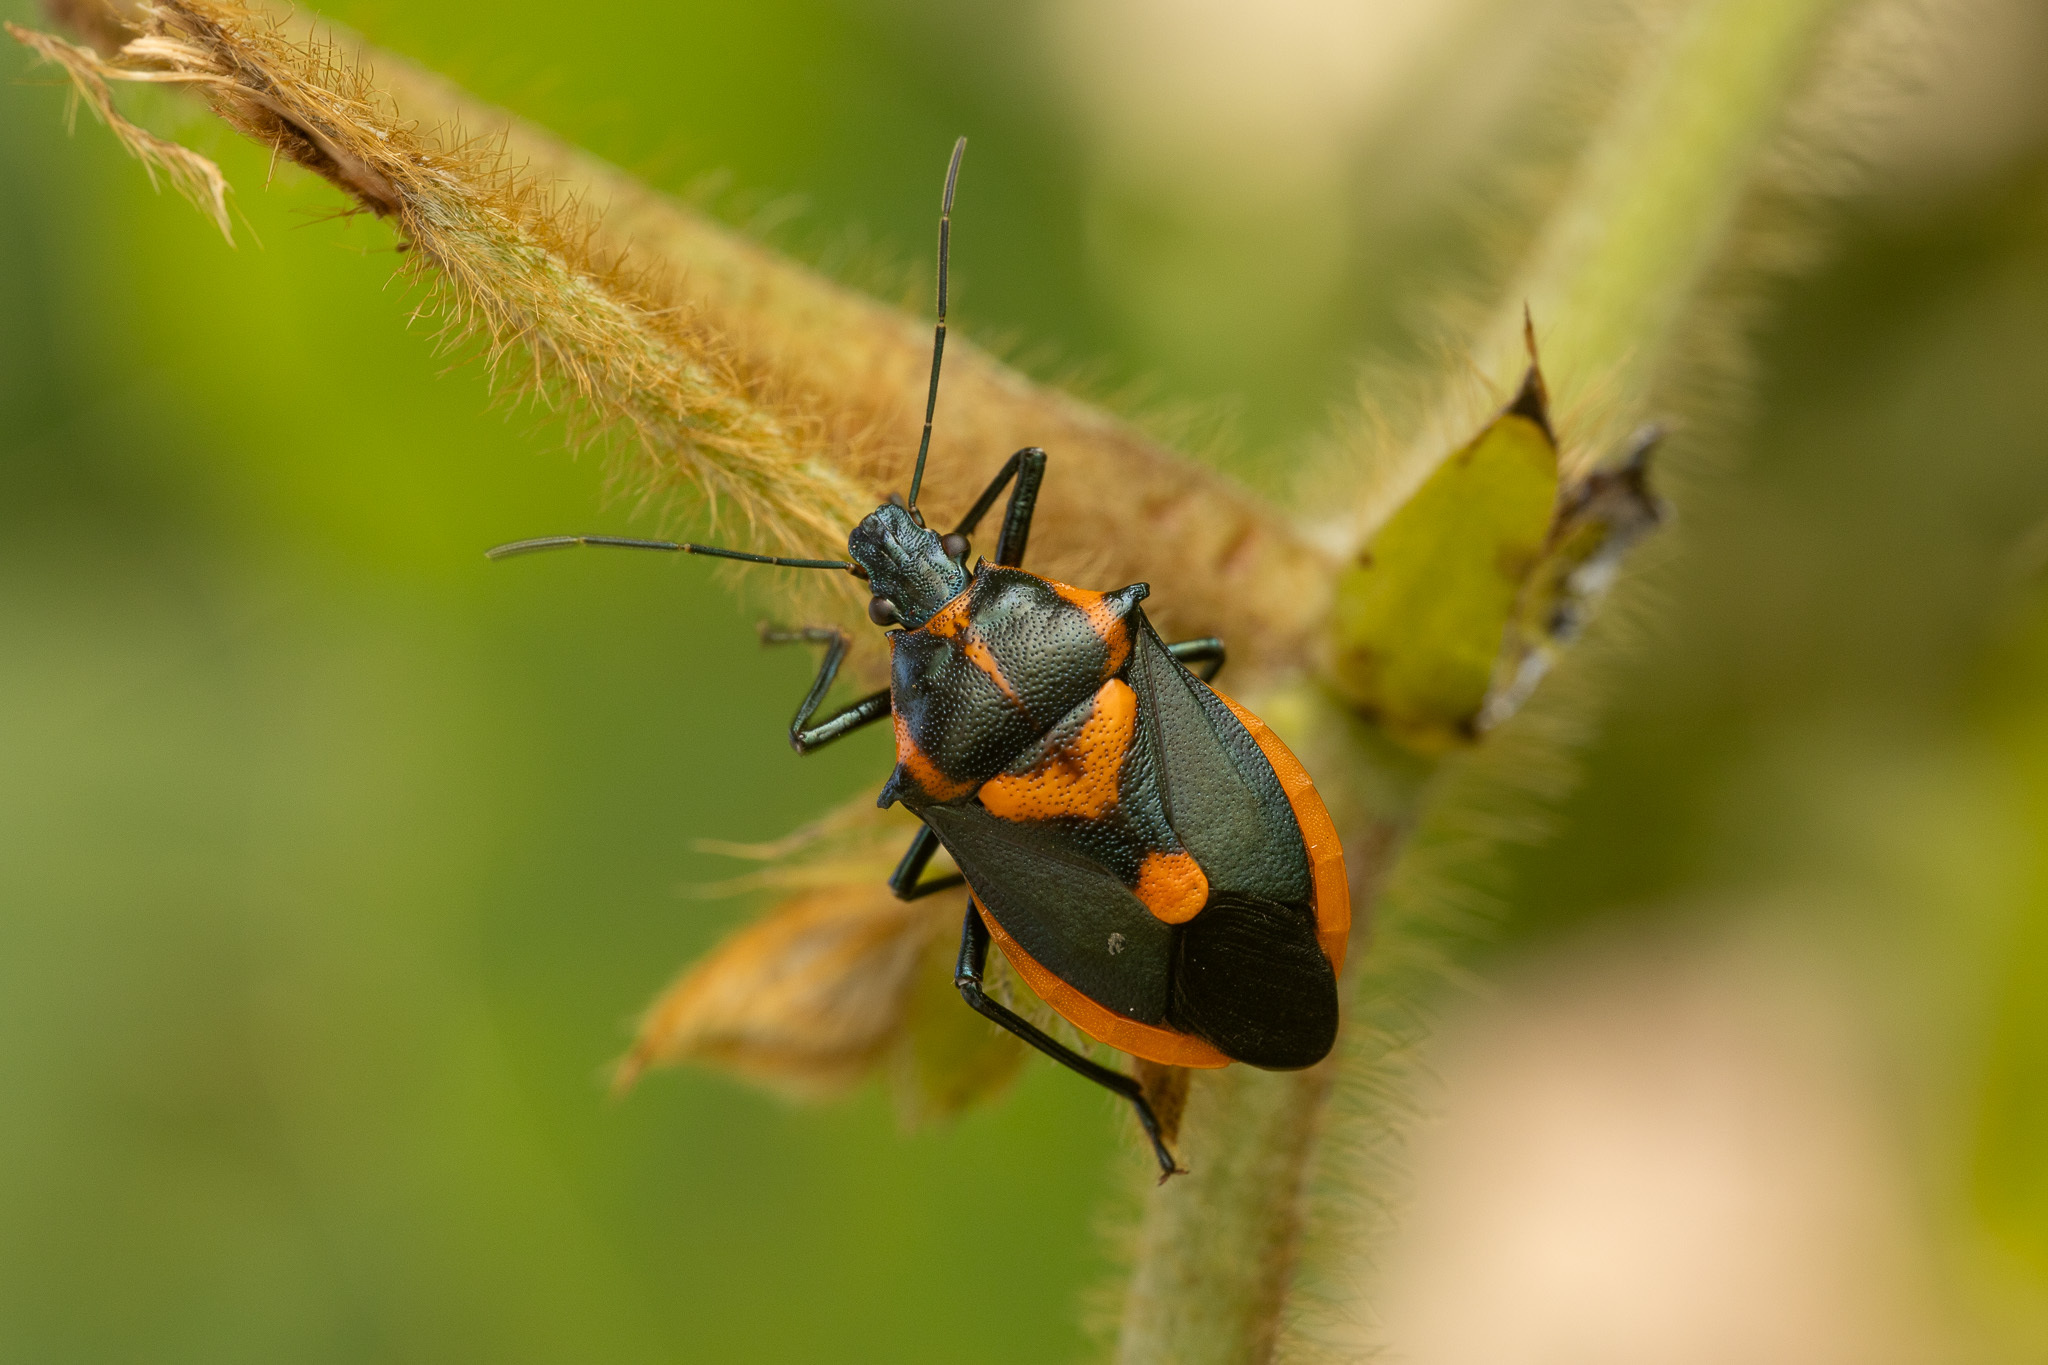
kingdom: Animalia
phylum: Arthropoda
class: Insecta
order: Hemiptera
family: Pentatomidae
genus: Euthyrhynchus
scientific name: Euthyrhynchus floridanus
